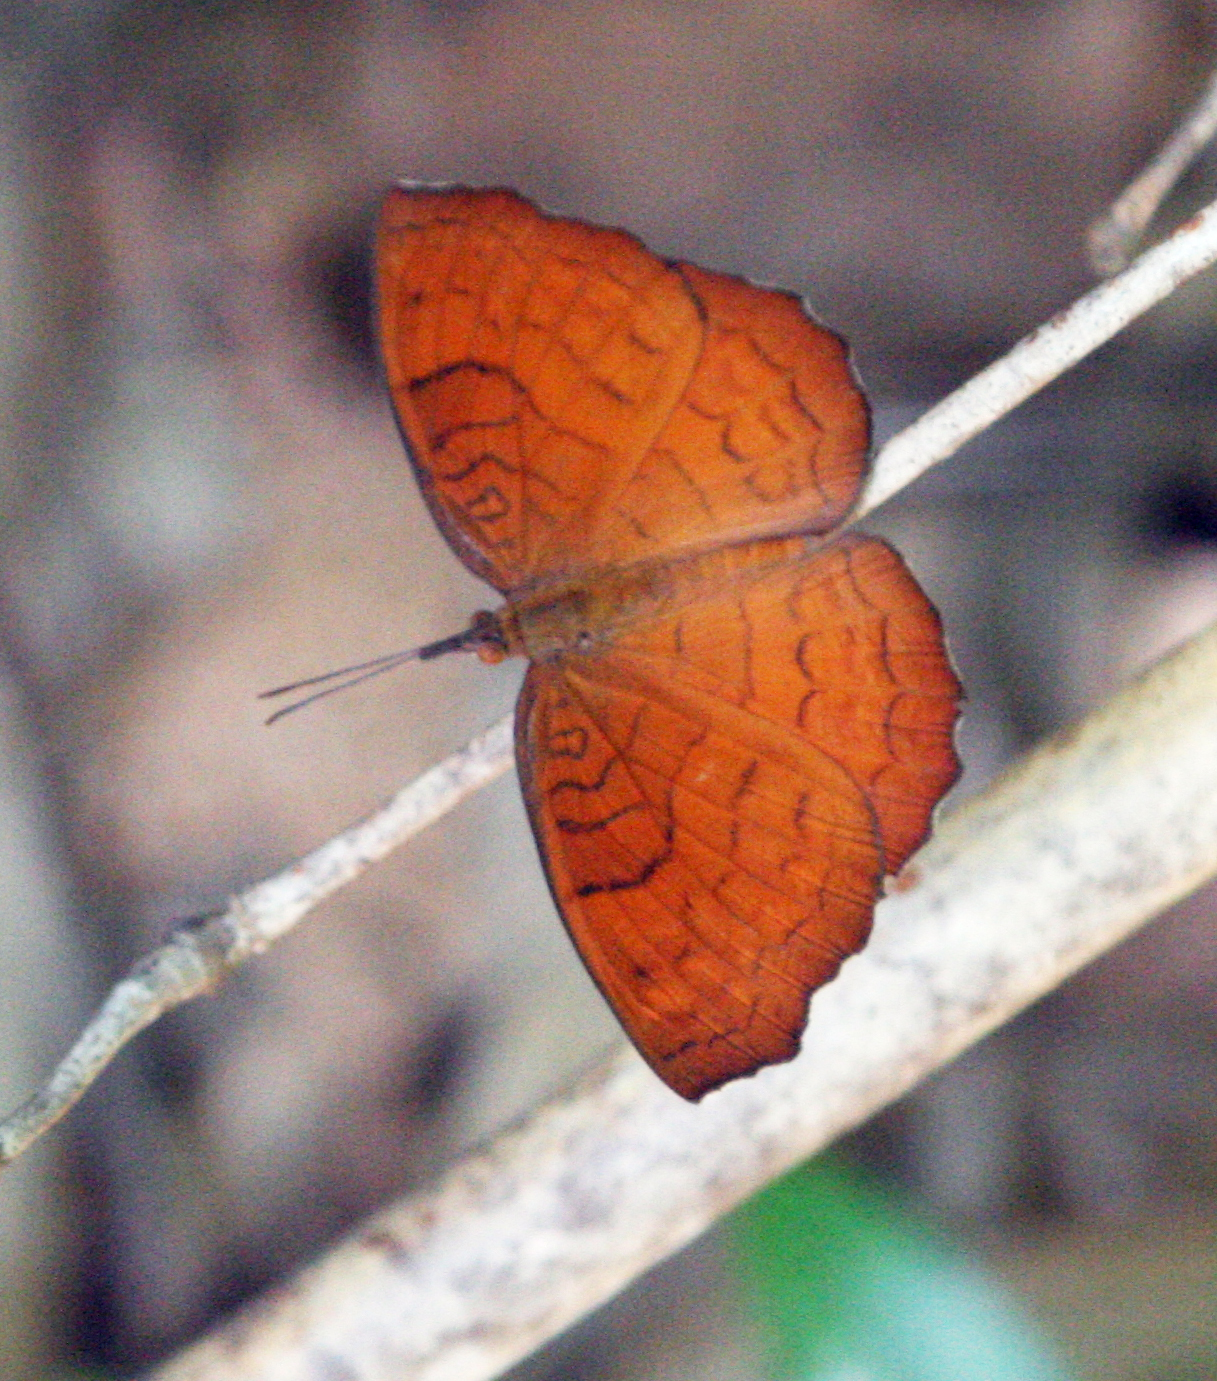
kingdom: Animalia
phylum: Arthropoda
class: Insecta
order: Lepidoptera
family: Nymphalidae
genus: Ariadne
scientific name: Ariadne specularia
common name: Banded castor
